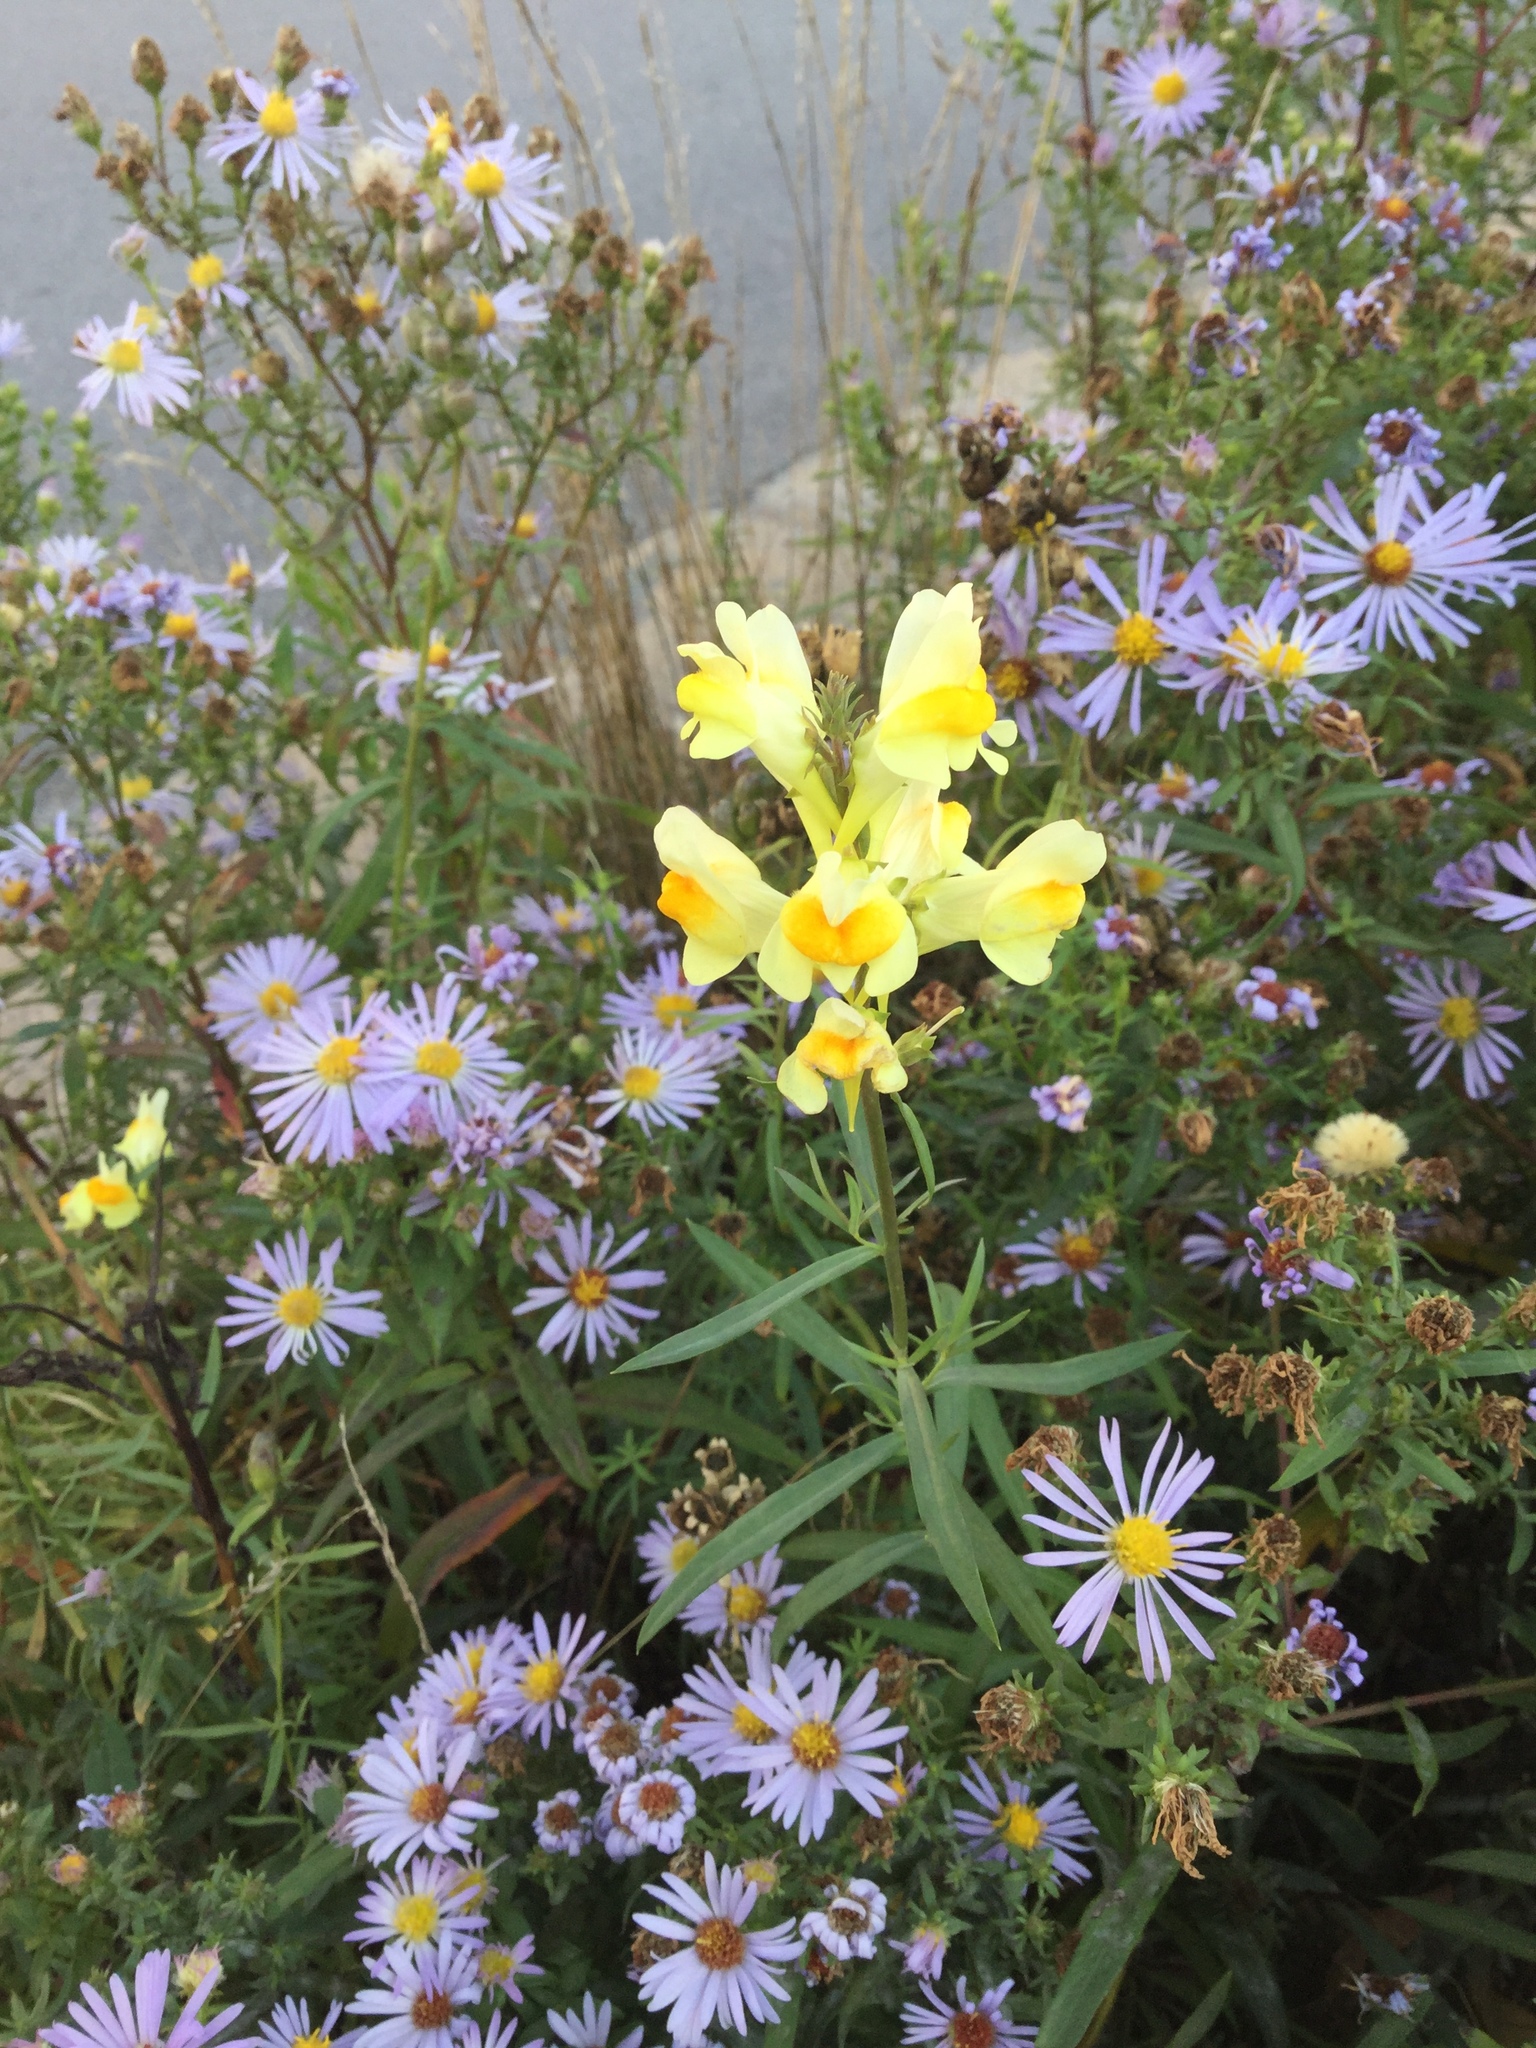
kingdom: Plantae
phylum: Tracheophyta
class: Magnoliopsida
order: Lamiales
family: Plantaginaceae
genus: Linaria
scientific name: Linaria vulgaris
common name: Butter and eggs
